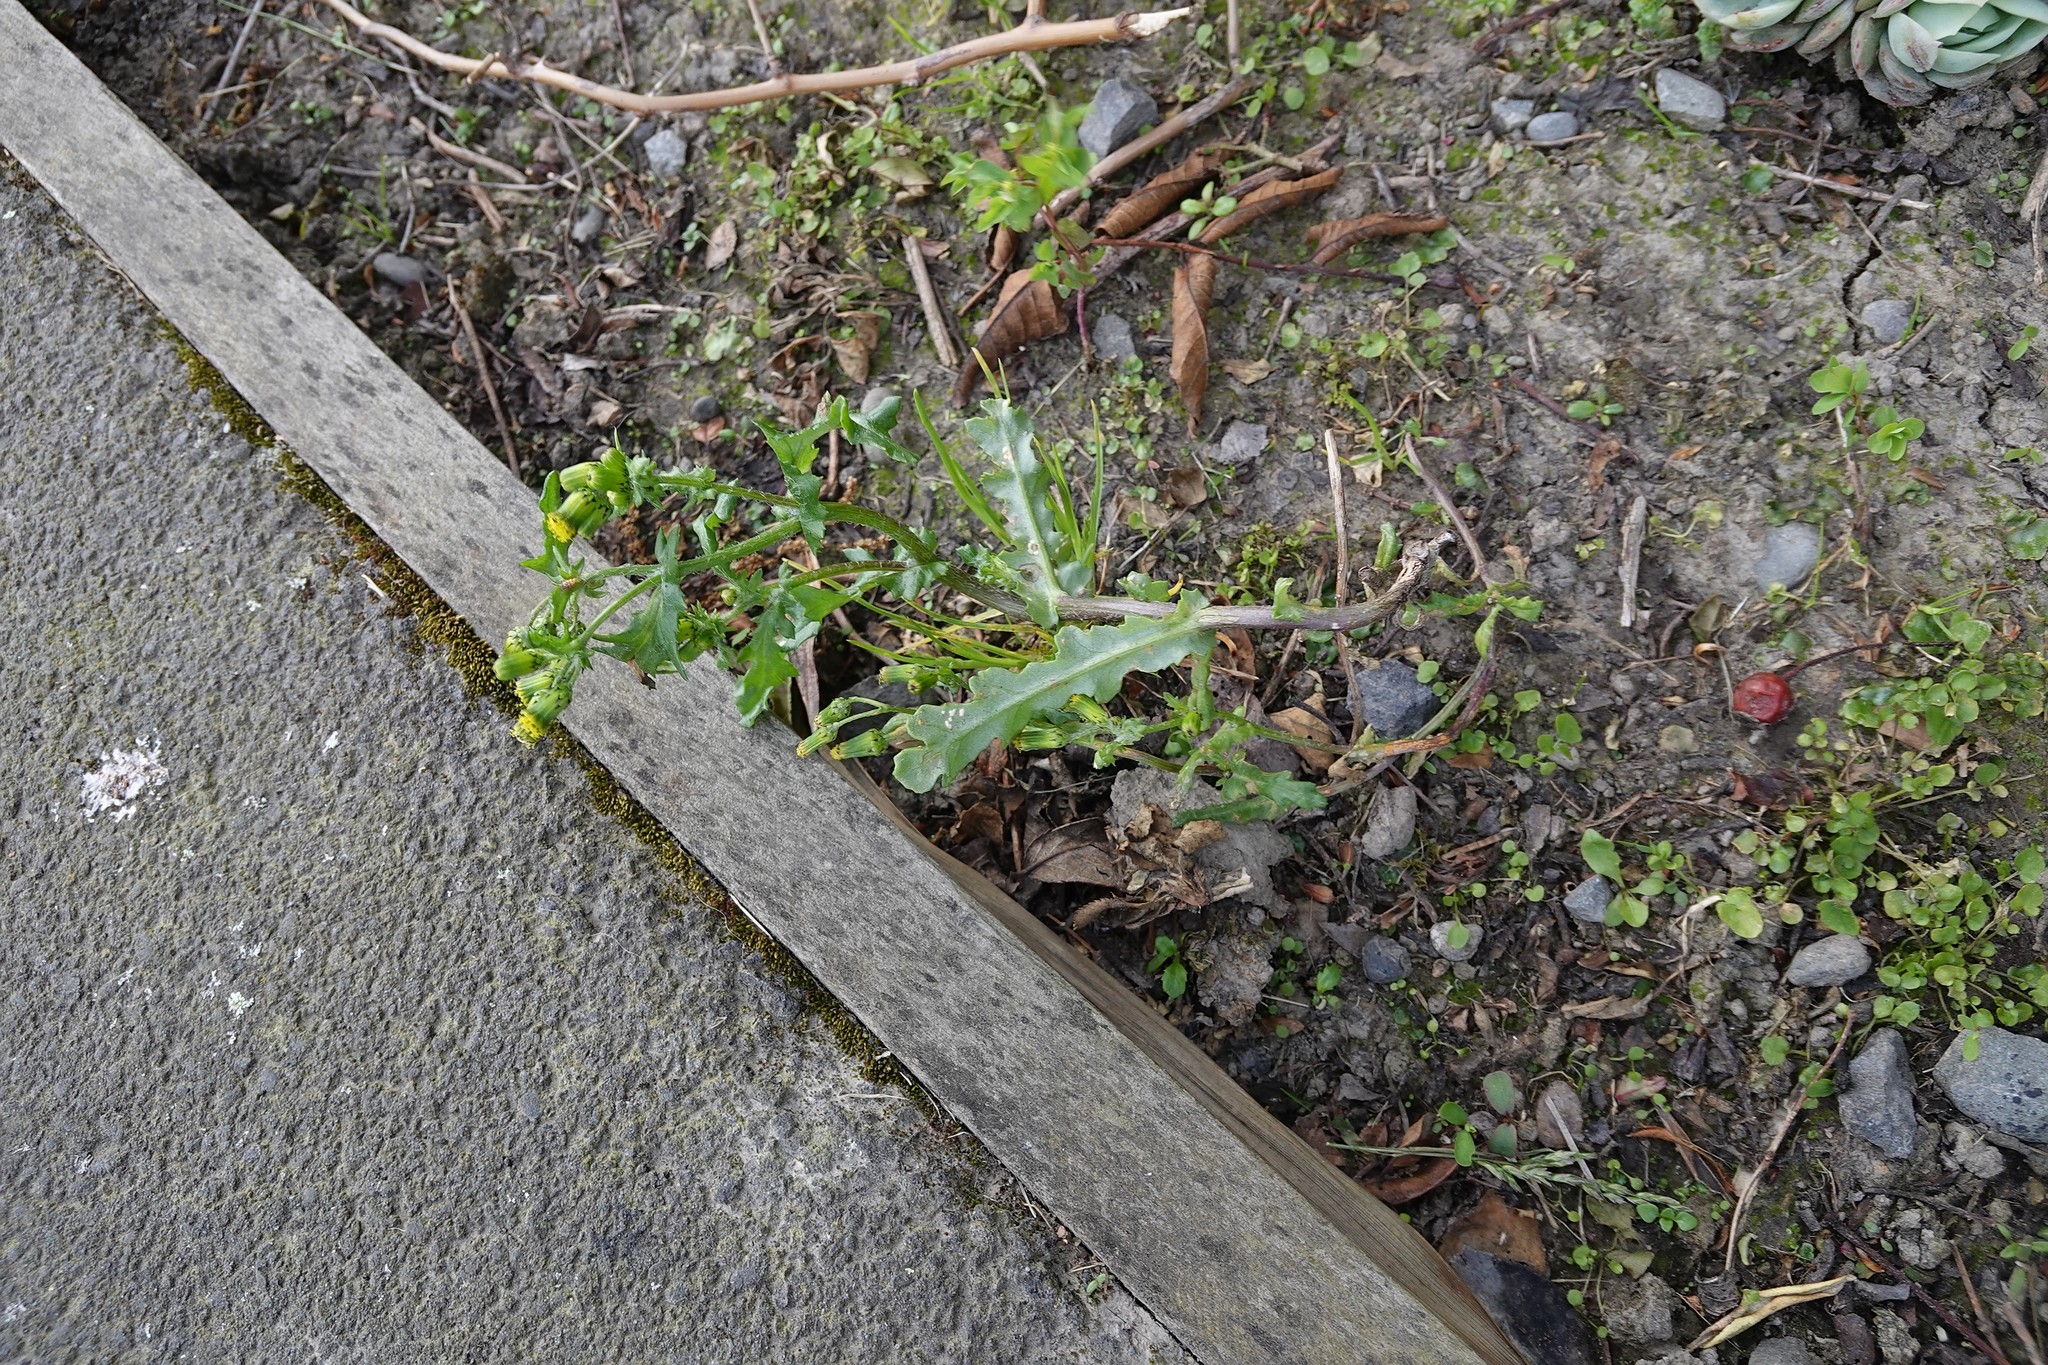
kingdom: Plantae
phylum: Tracheophyta
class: Magnoliopsida
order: Asterales
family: Asteraceae
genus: Senecio
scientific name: Senecio vulgaris
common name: Old-man-in-the-spring
